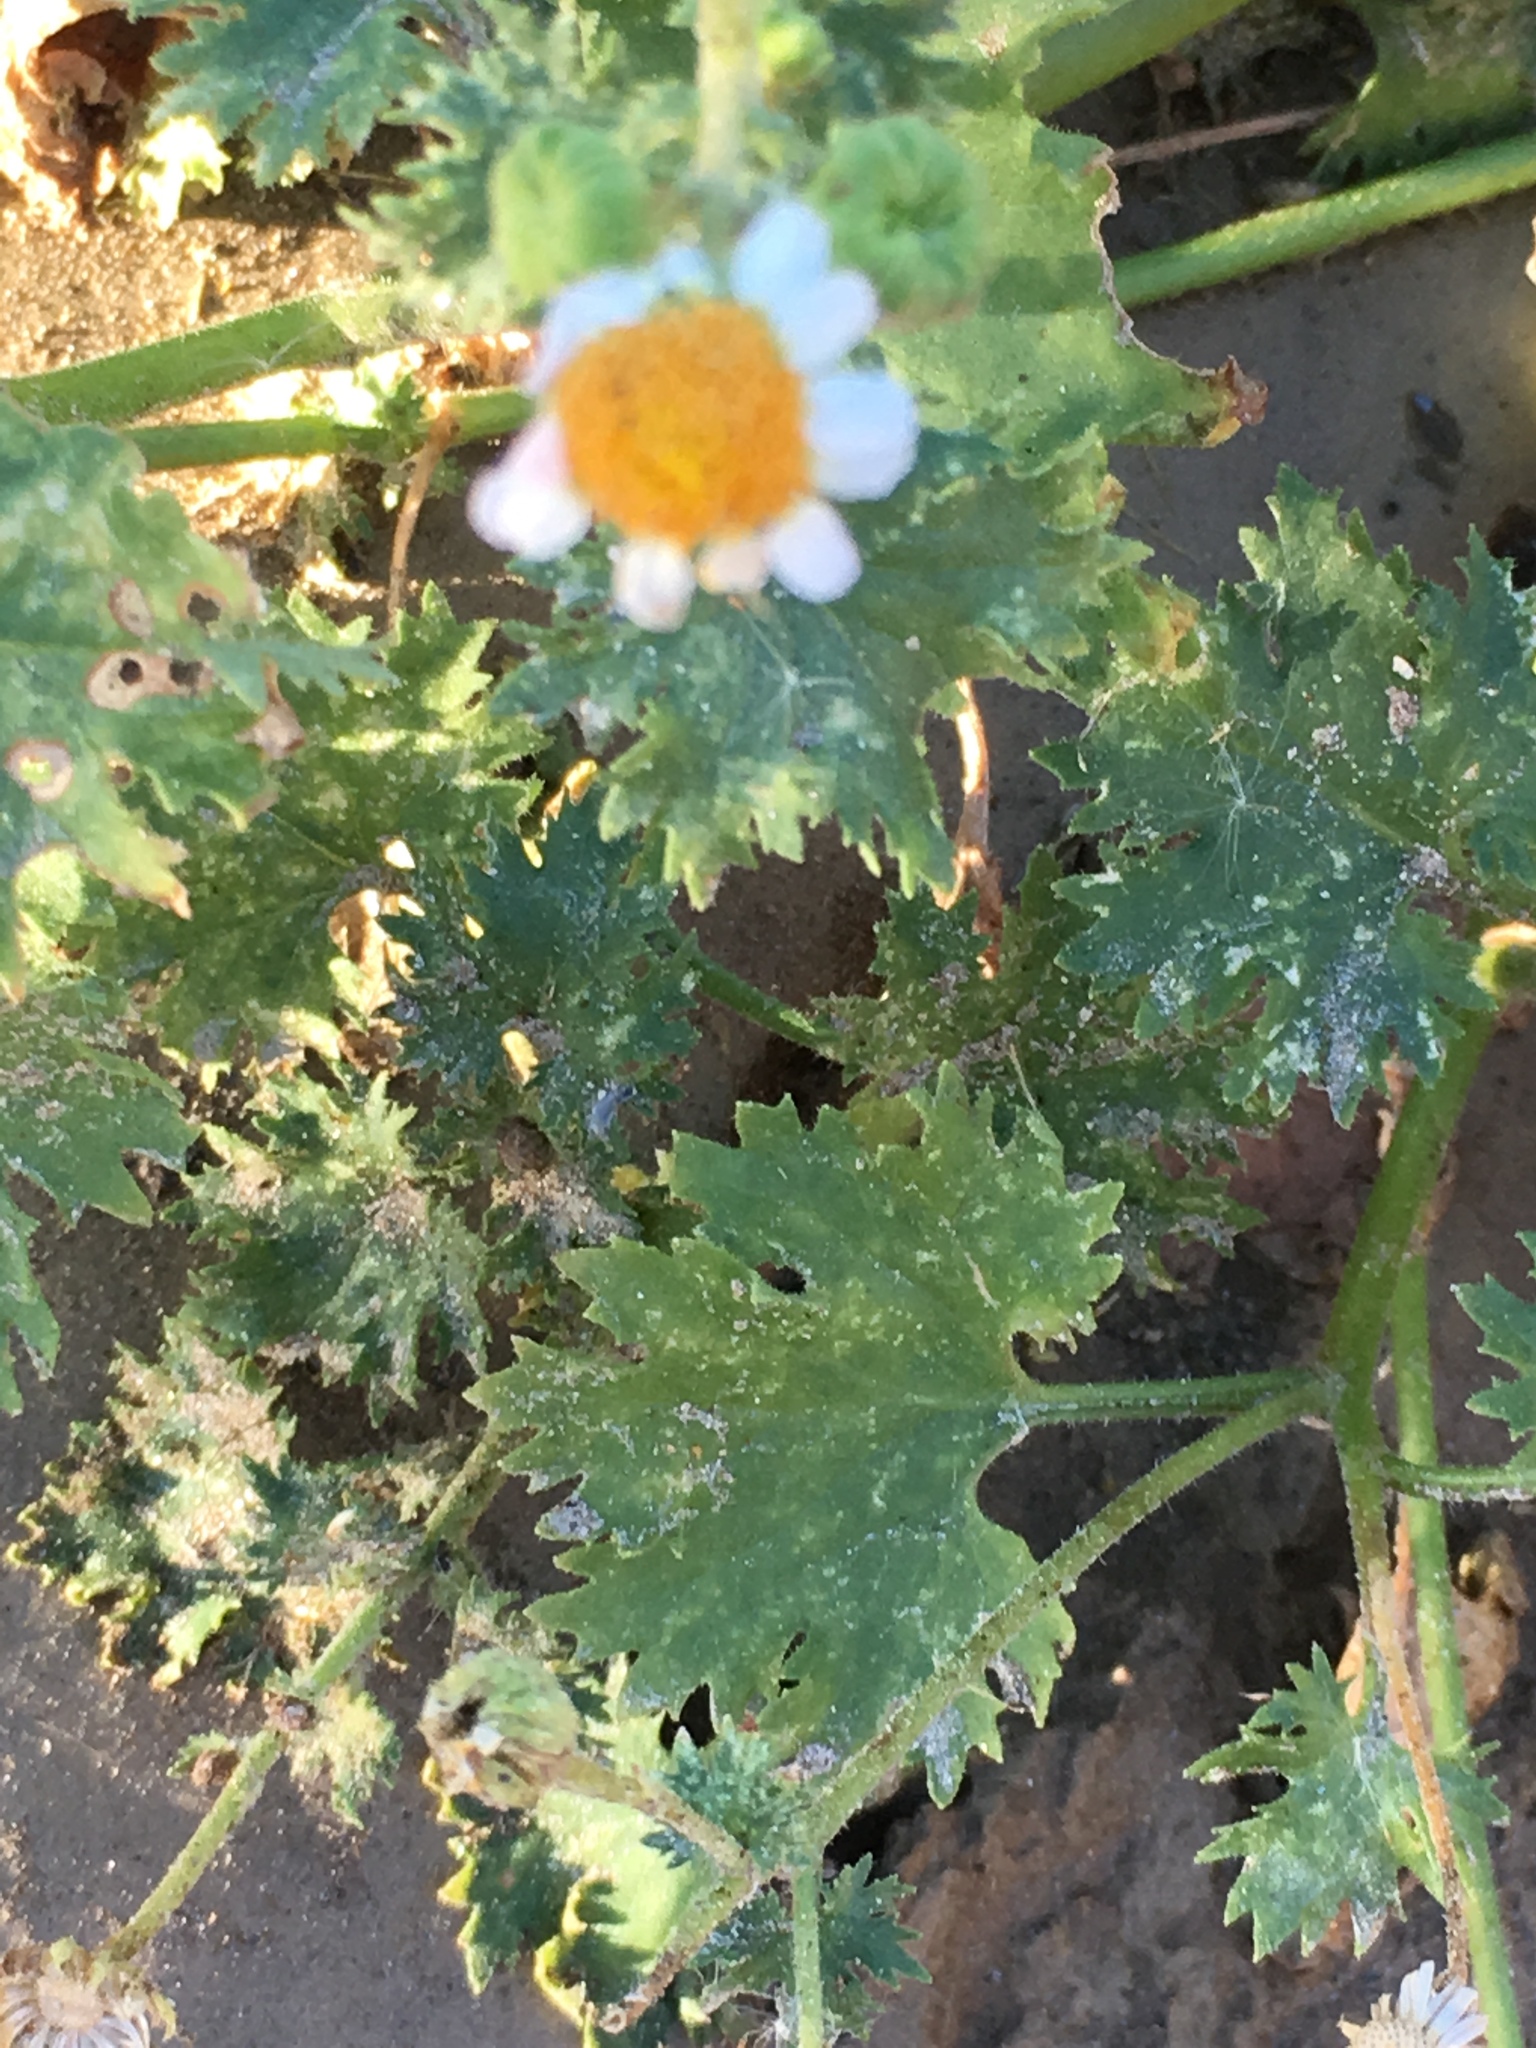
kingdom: Plantae
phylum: Tracheophyta
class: Magnoliopsida
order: Asterales
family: Asteraceae
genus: Laphamia
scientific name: Laphamia emoryi
